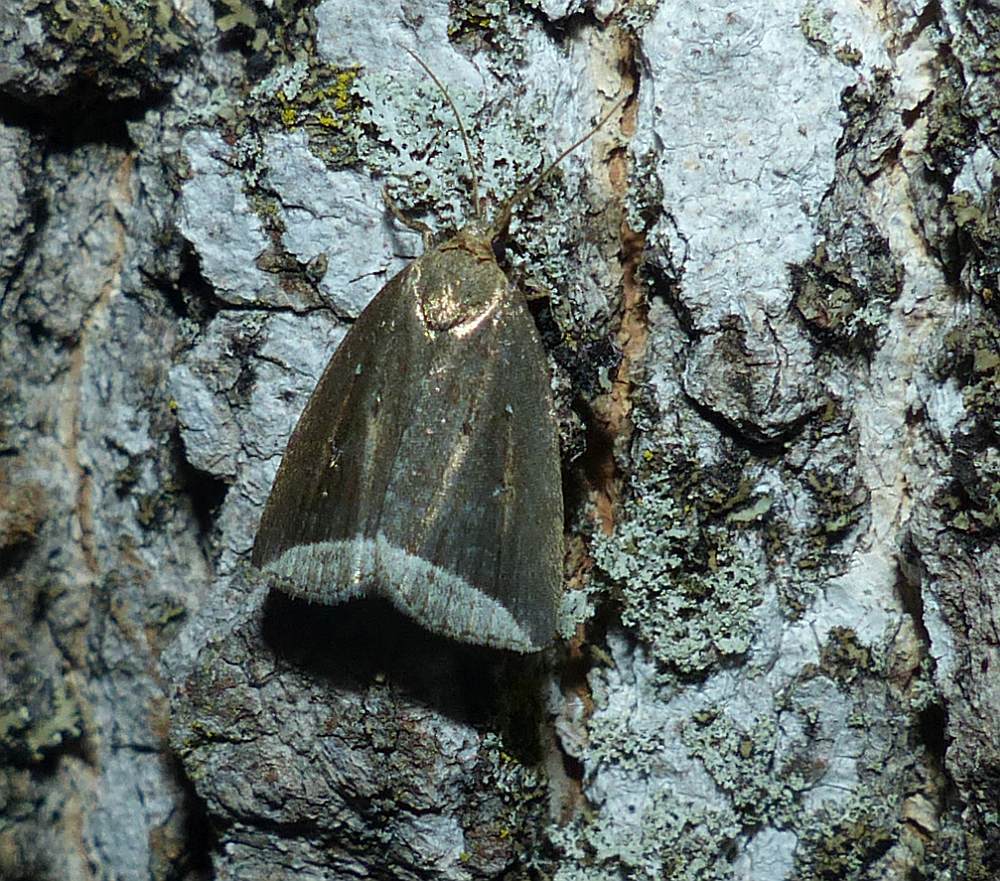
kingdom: Animalia
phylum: Arthropoda
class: Insecta
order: Lepidoptera
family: Erebidae
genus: Capis
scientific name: Capis curvata
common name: Curved halter moth
